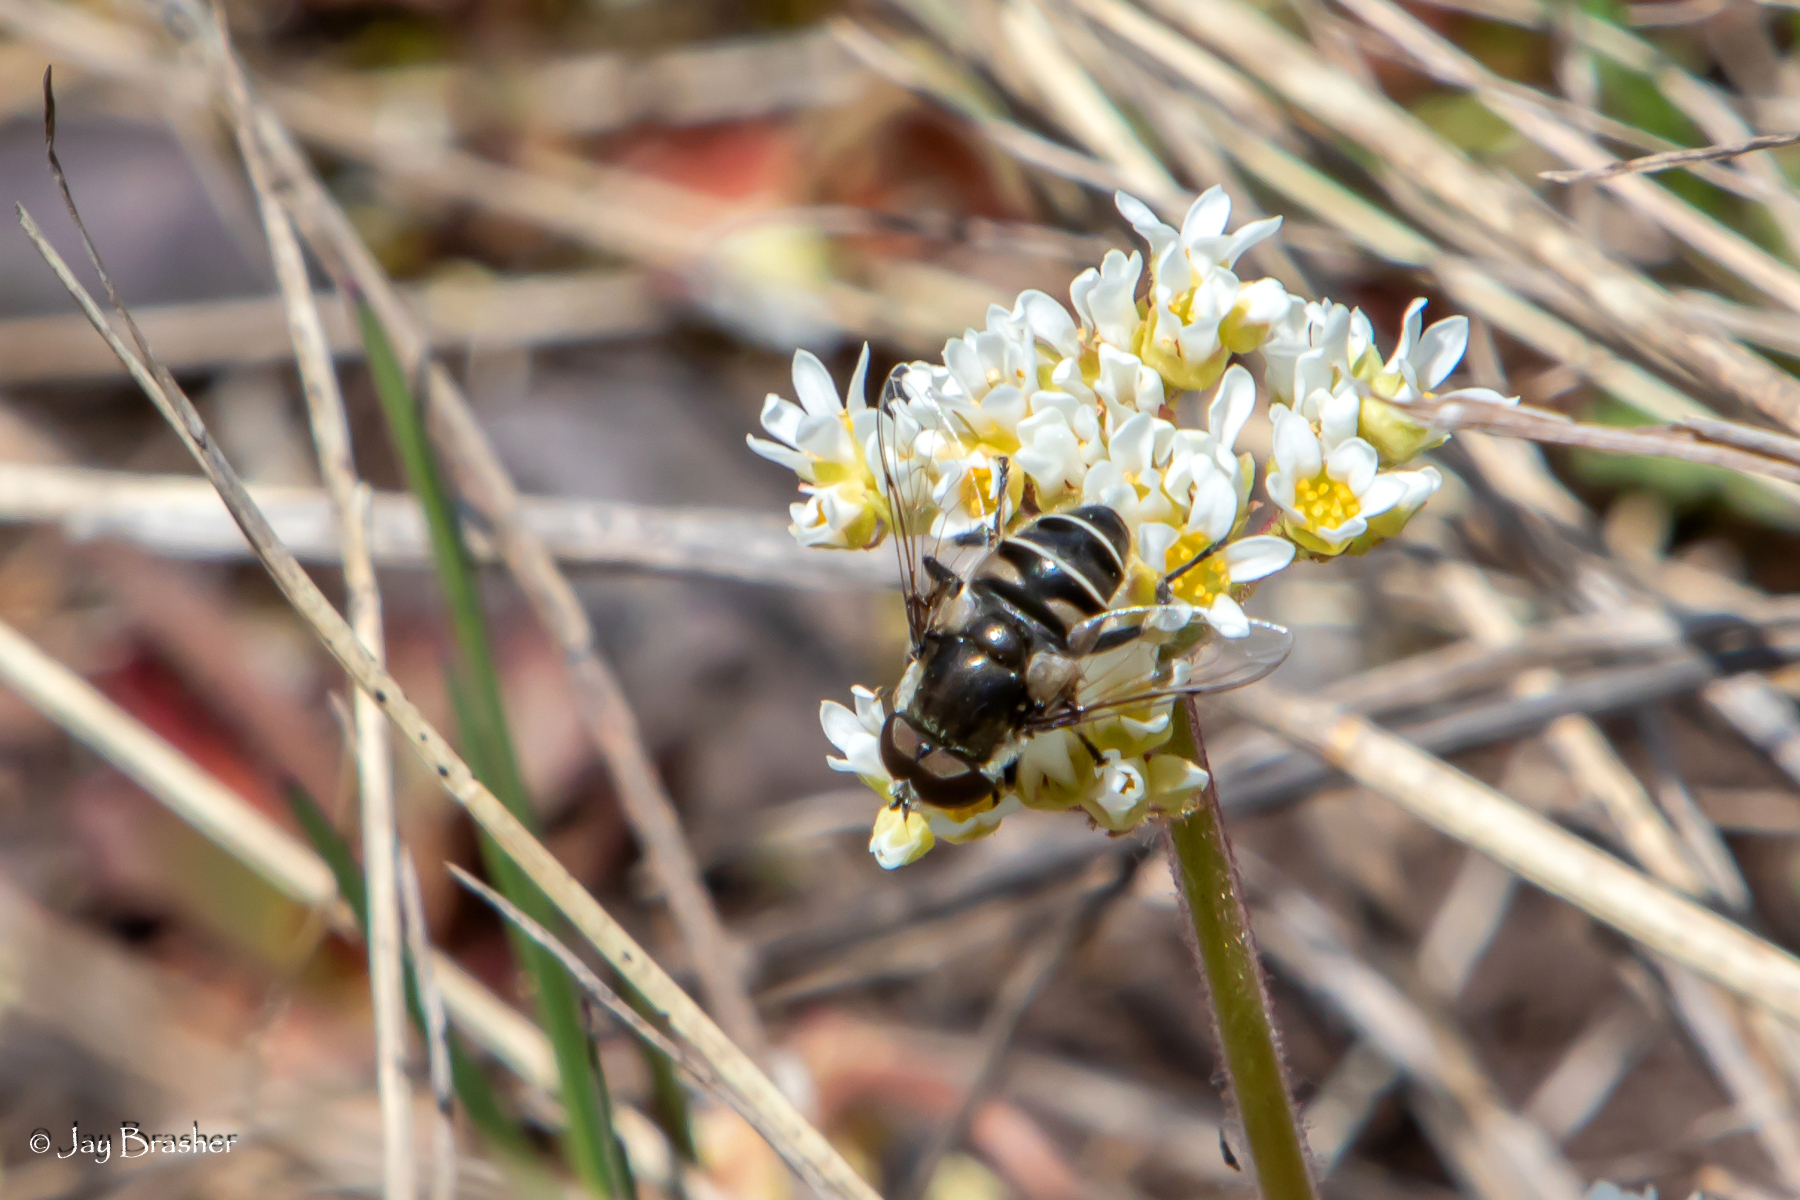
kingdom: Animalia
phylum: Arthropoda
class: Insecta
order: Diptera
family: Syrphidae
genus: Eristalis
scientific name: Eristalis dimidiata
